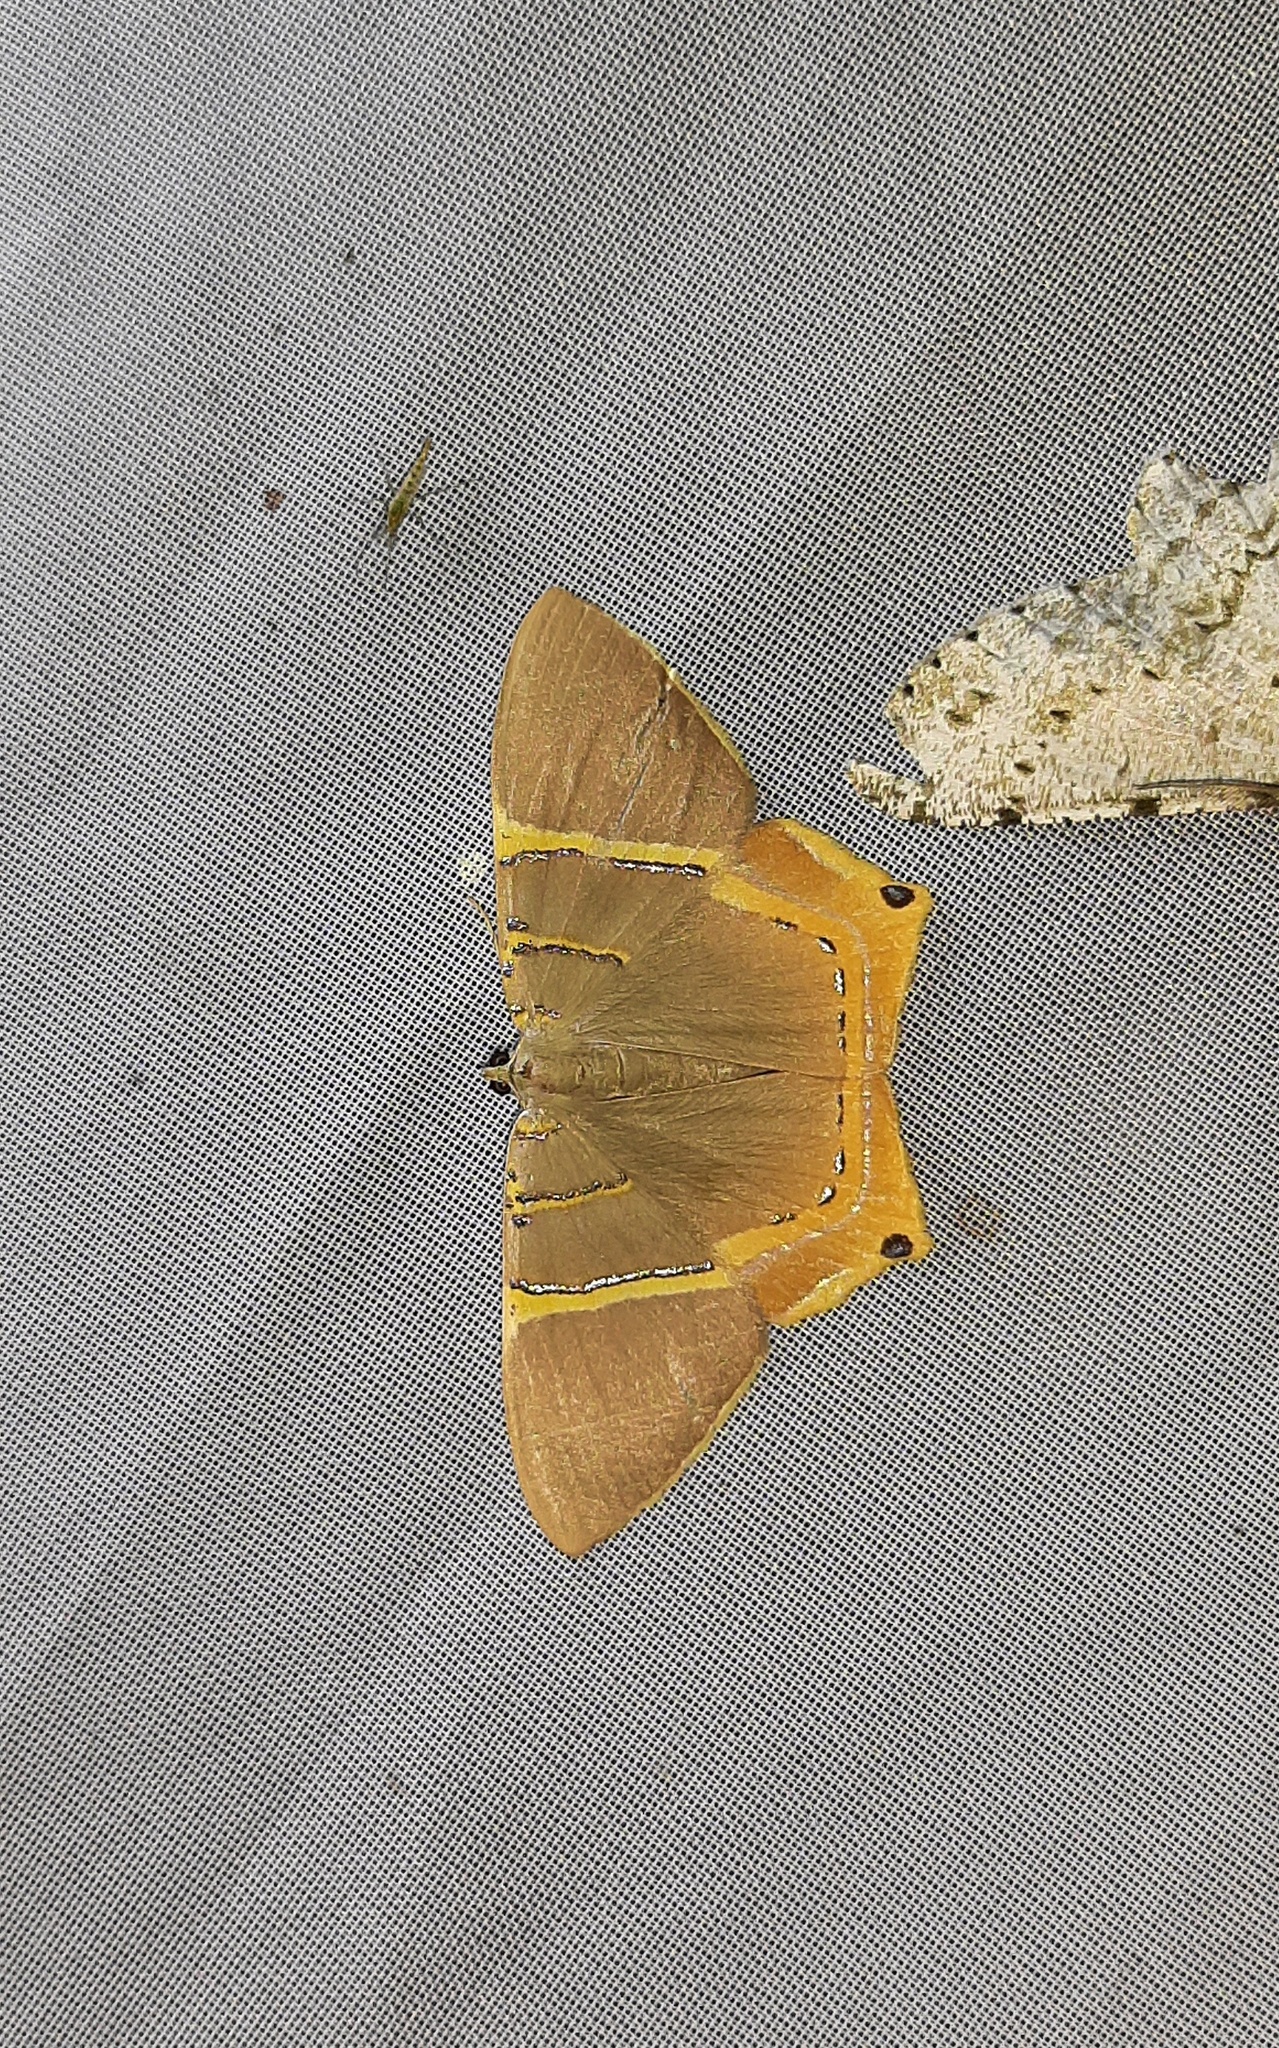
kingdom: Animalia
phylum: Arthropoda
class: Insecta
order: Lepidoptera
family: Geometridae
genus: Phrygionis
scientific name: Phrygionis polita
